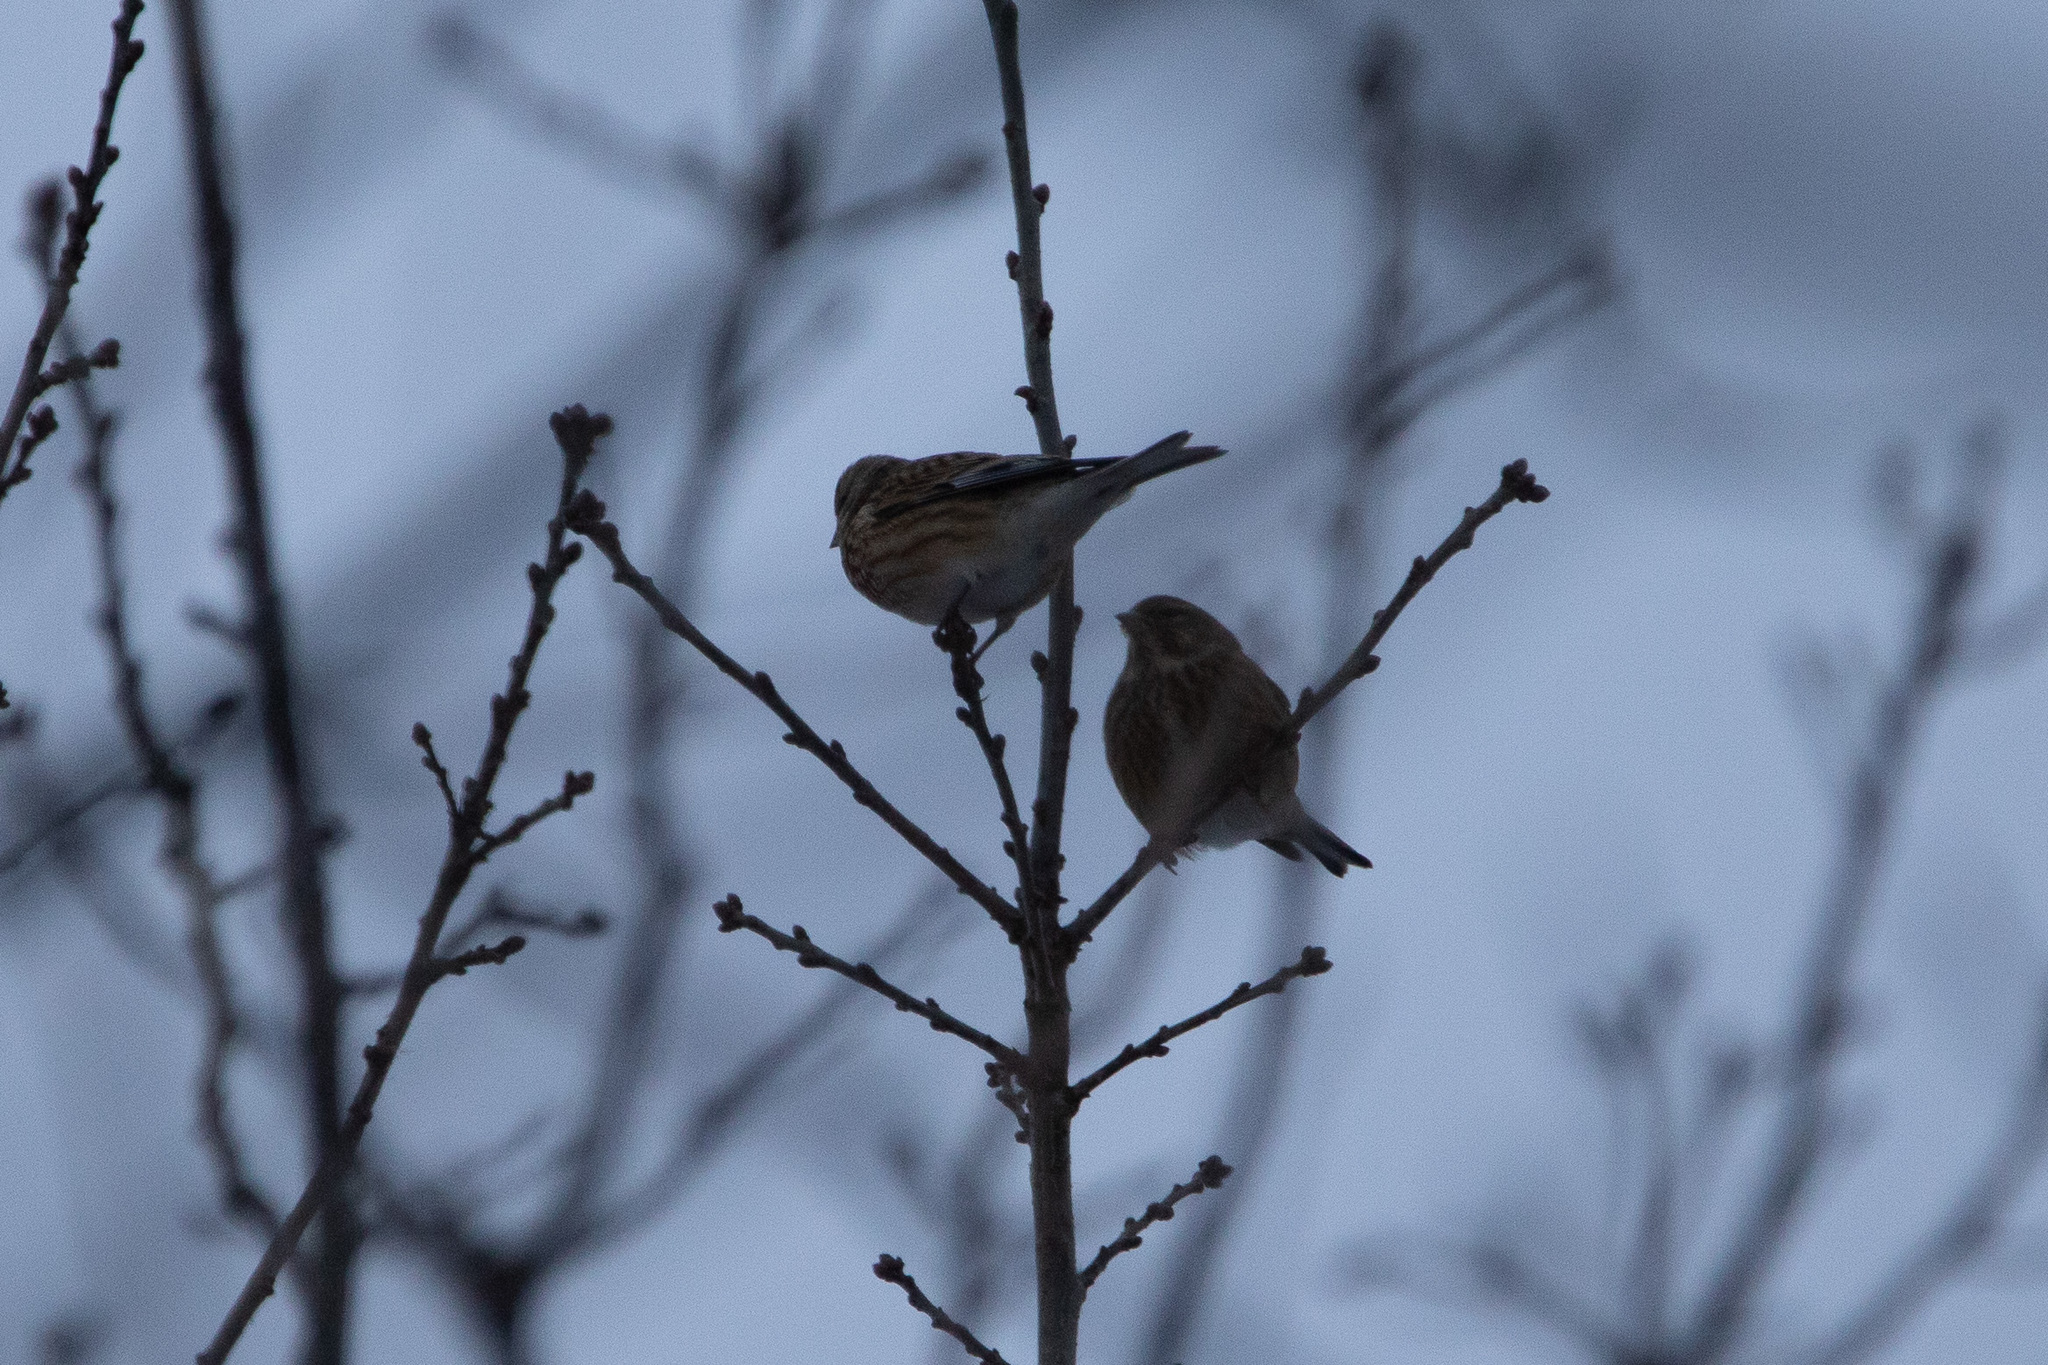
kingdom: Animalia
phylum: Chordata
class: Aves
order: Passeriformes
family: Fringillidae
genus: Linaria
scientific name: Linaria cannabina
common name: Common linnet
